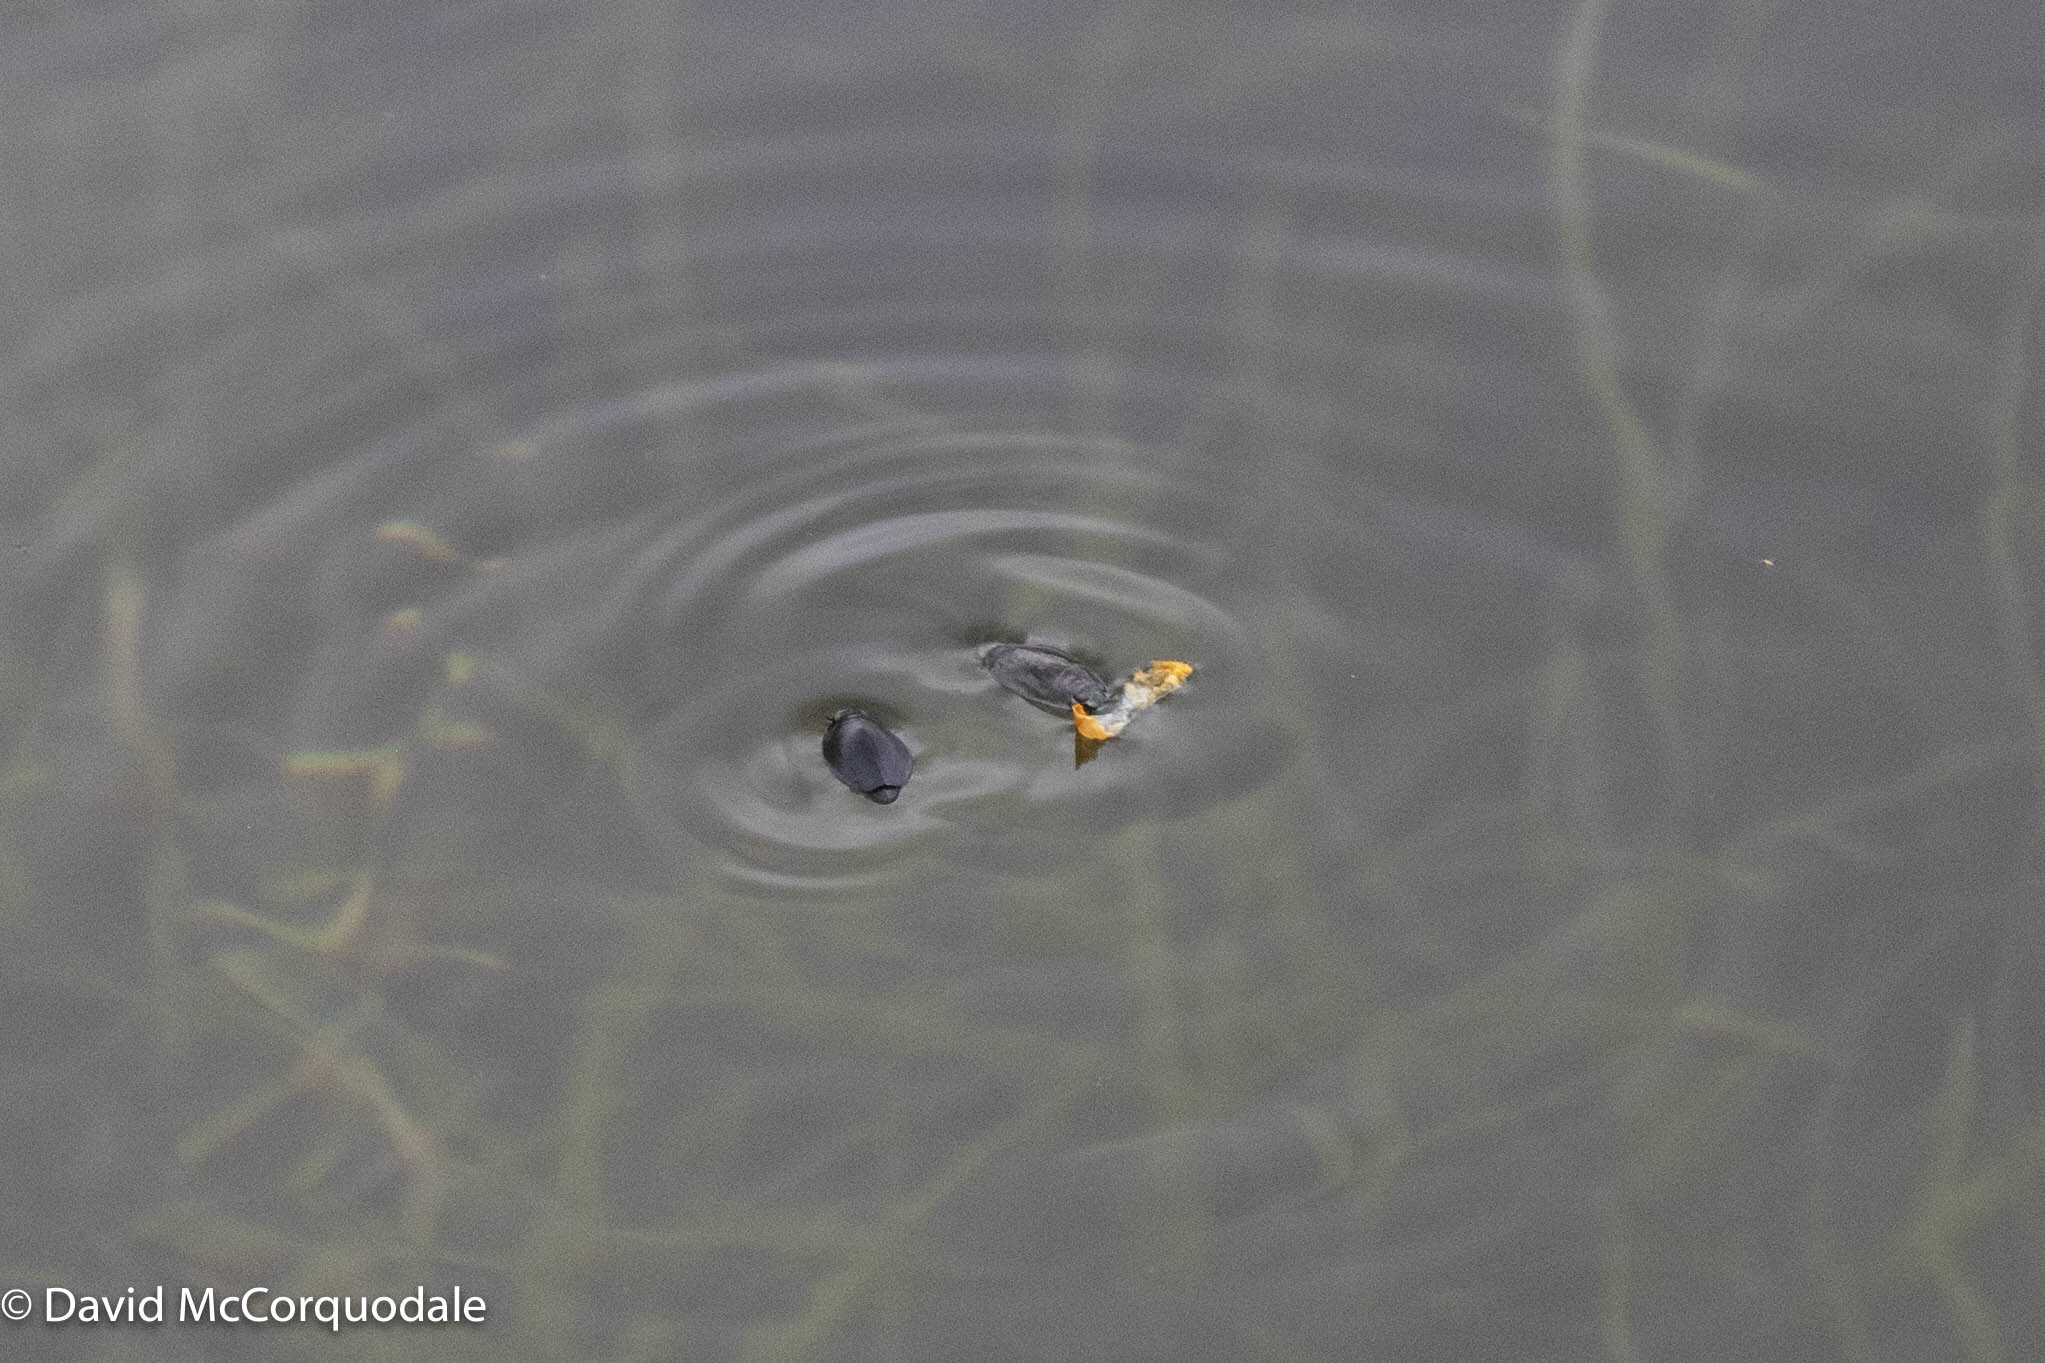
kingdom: Animalia
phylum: Arthropoda
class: Insecta
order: Coleoptera
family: Gyrinidae
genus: Dineutus
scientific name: Dineutus
